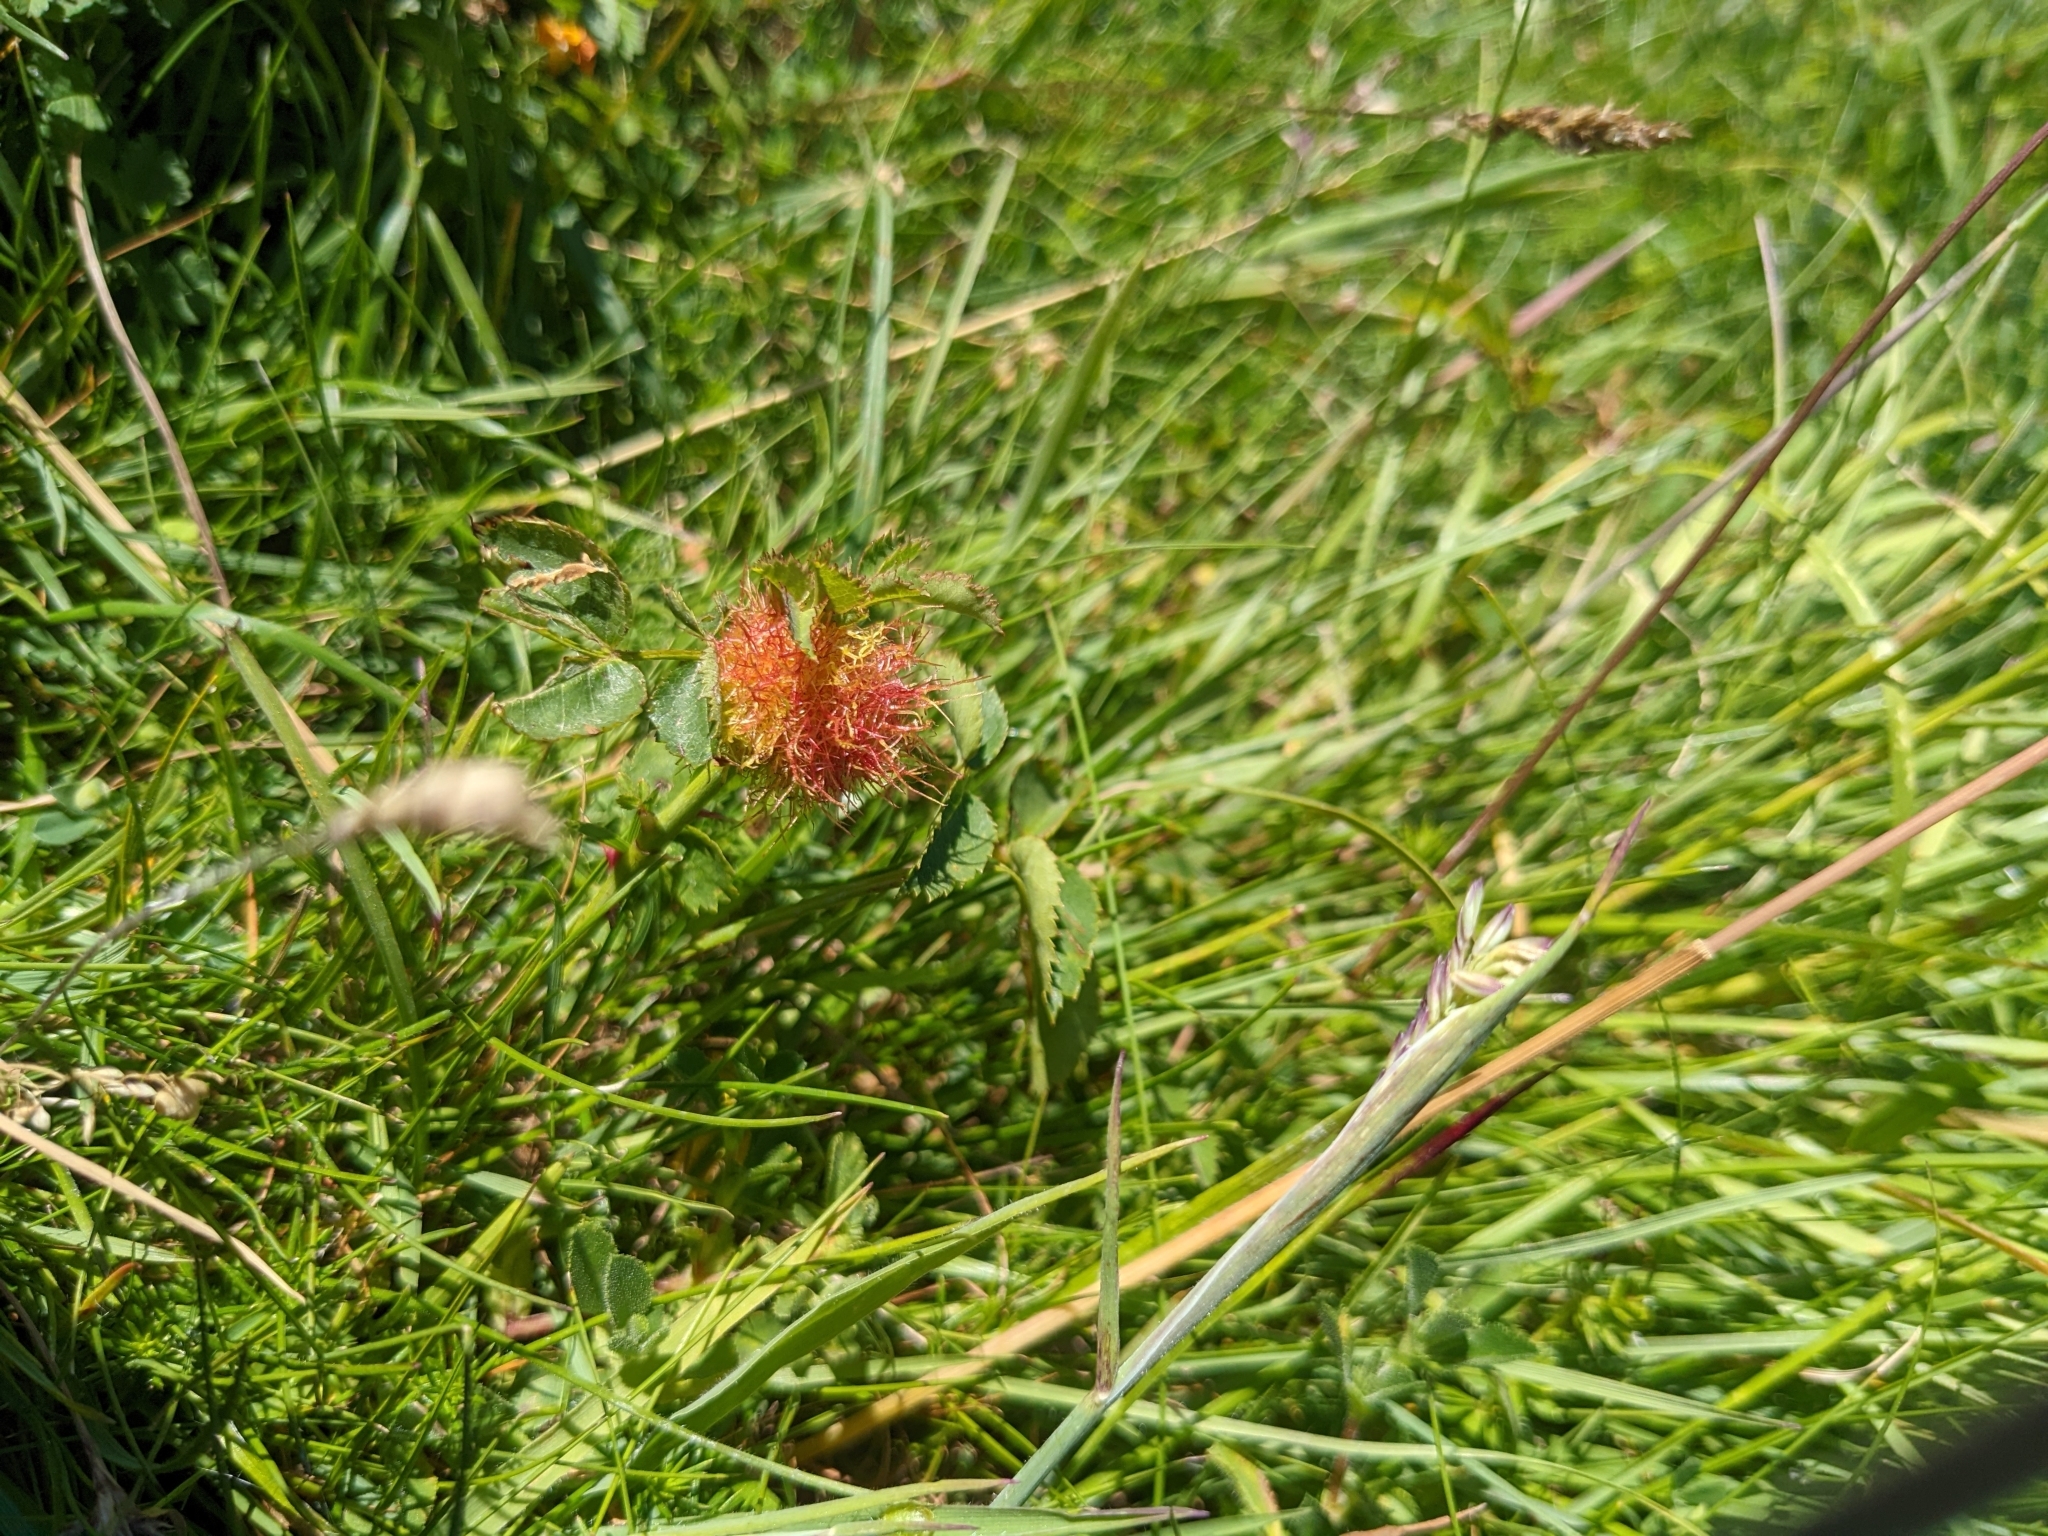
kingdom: Animalia
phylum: Arthropoda
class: Insecta
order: Hymenoptera
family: Cynipidae
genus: Diplolepis
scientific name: Diplolepis rosae
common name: Bedeguar gall
